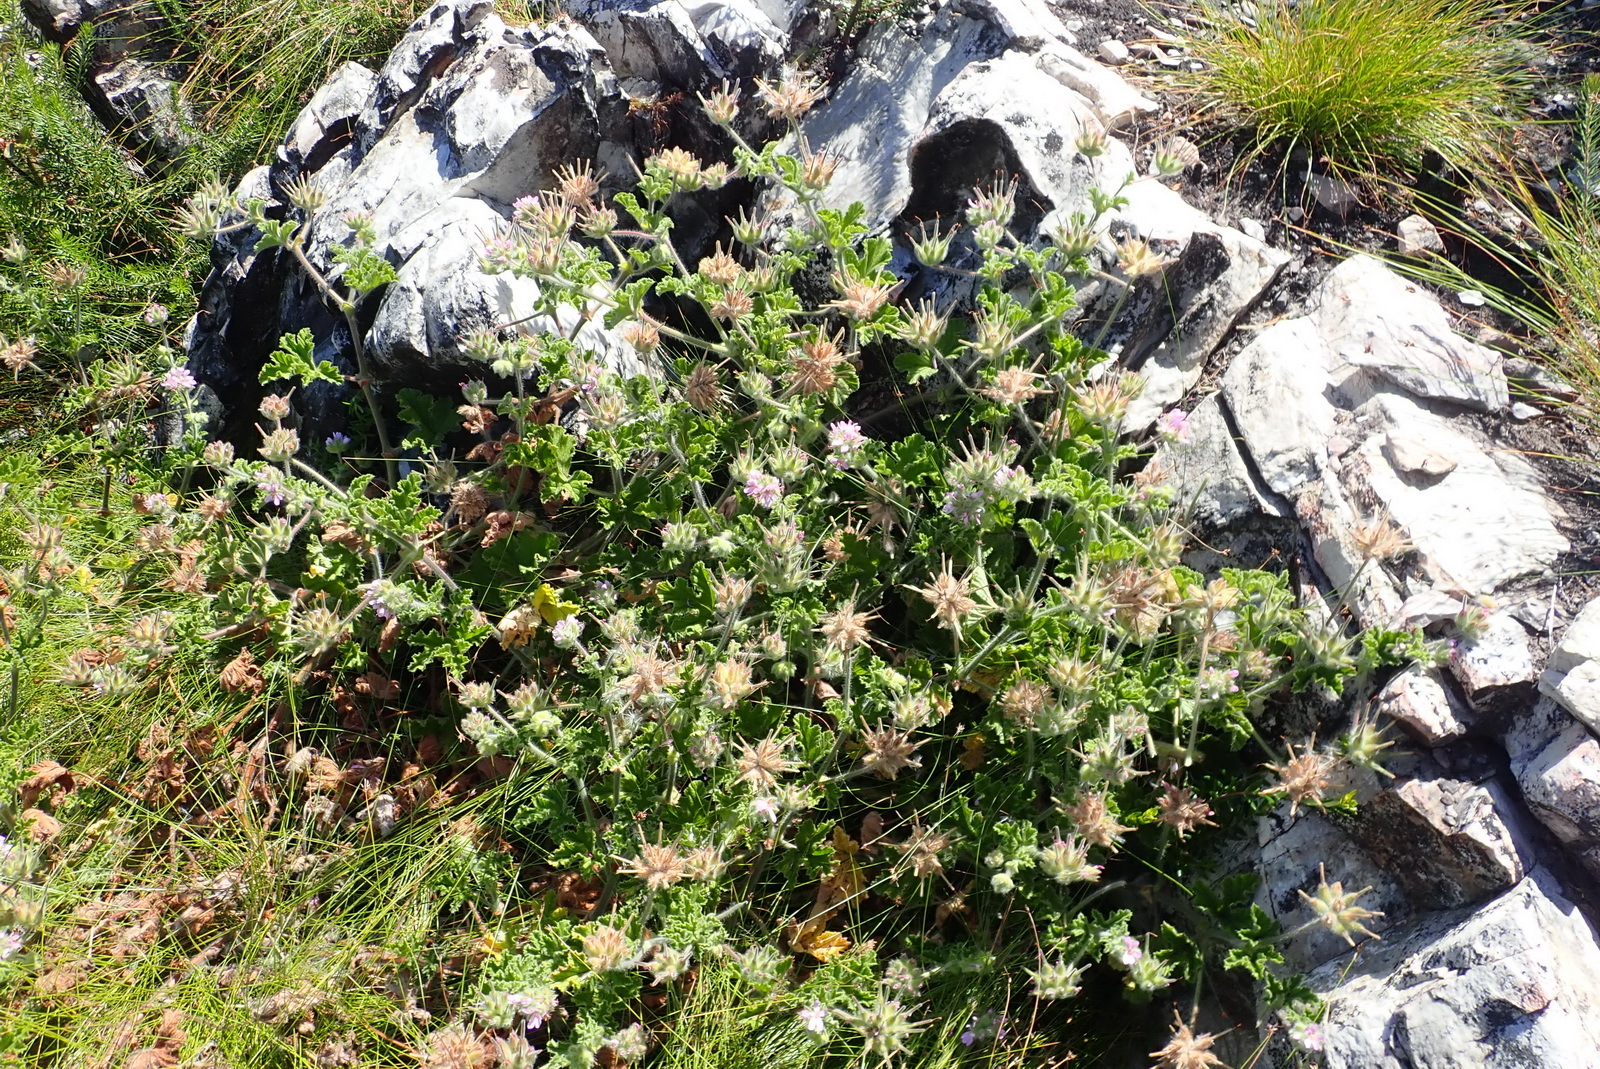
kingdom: Plantae
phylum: Tracheophyta
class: Magnoliopsida
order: Geraniales
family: Geraniaceae
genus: Pelargonium
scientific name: Pelargonium capitatum
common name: Rose scented geranium
